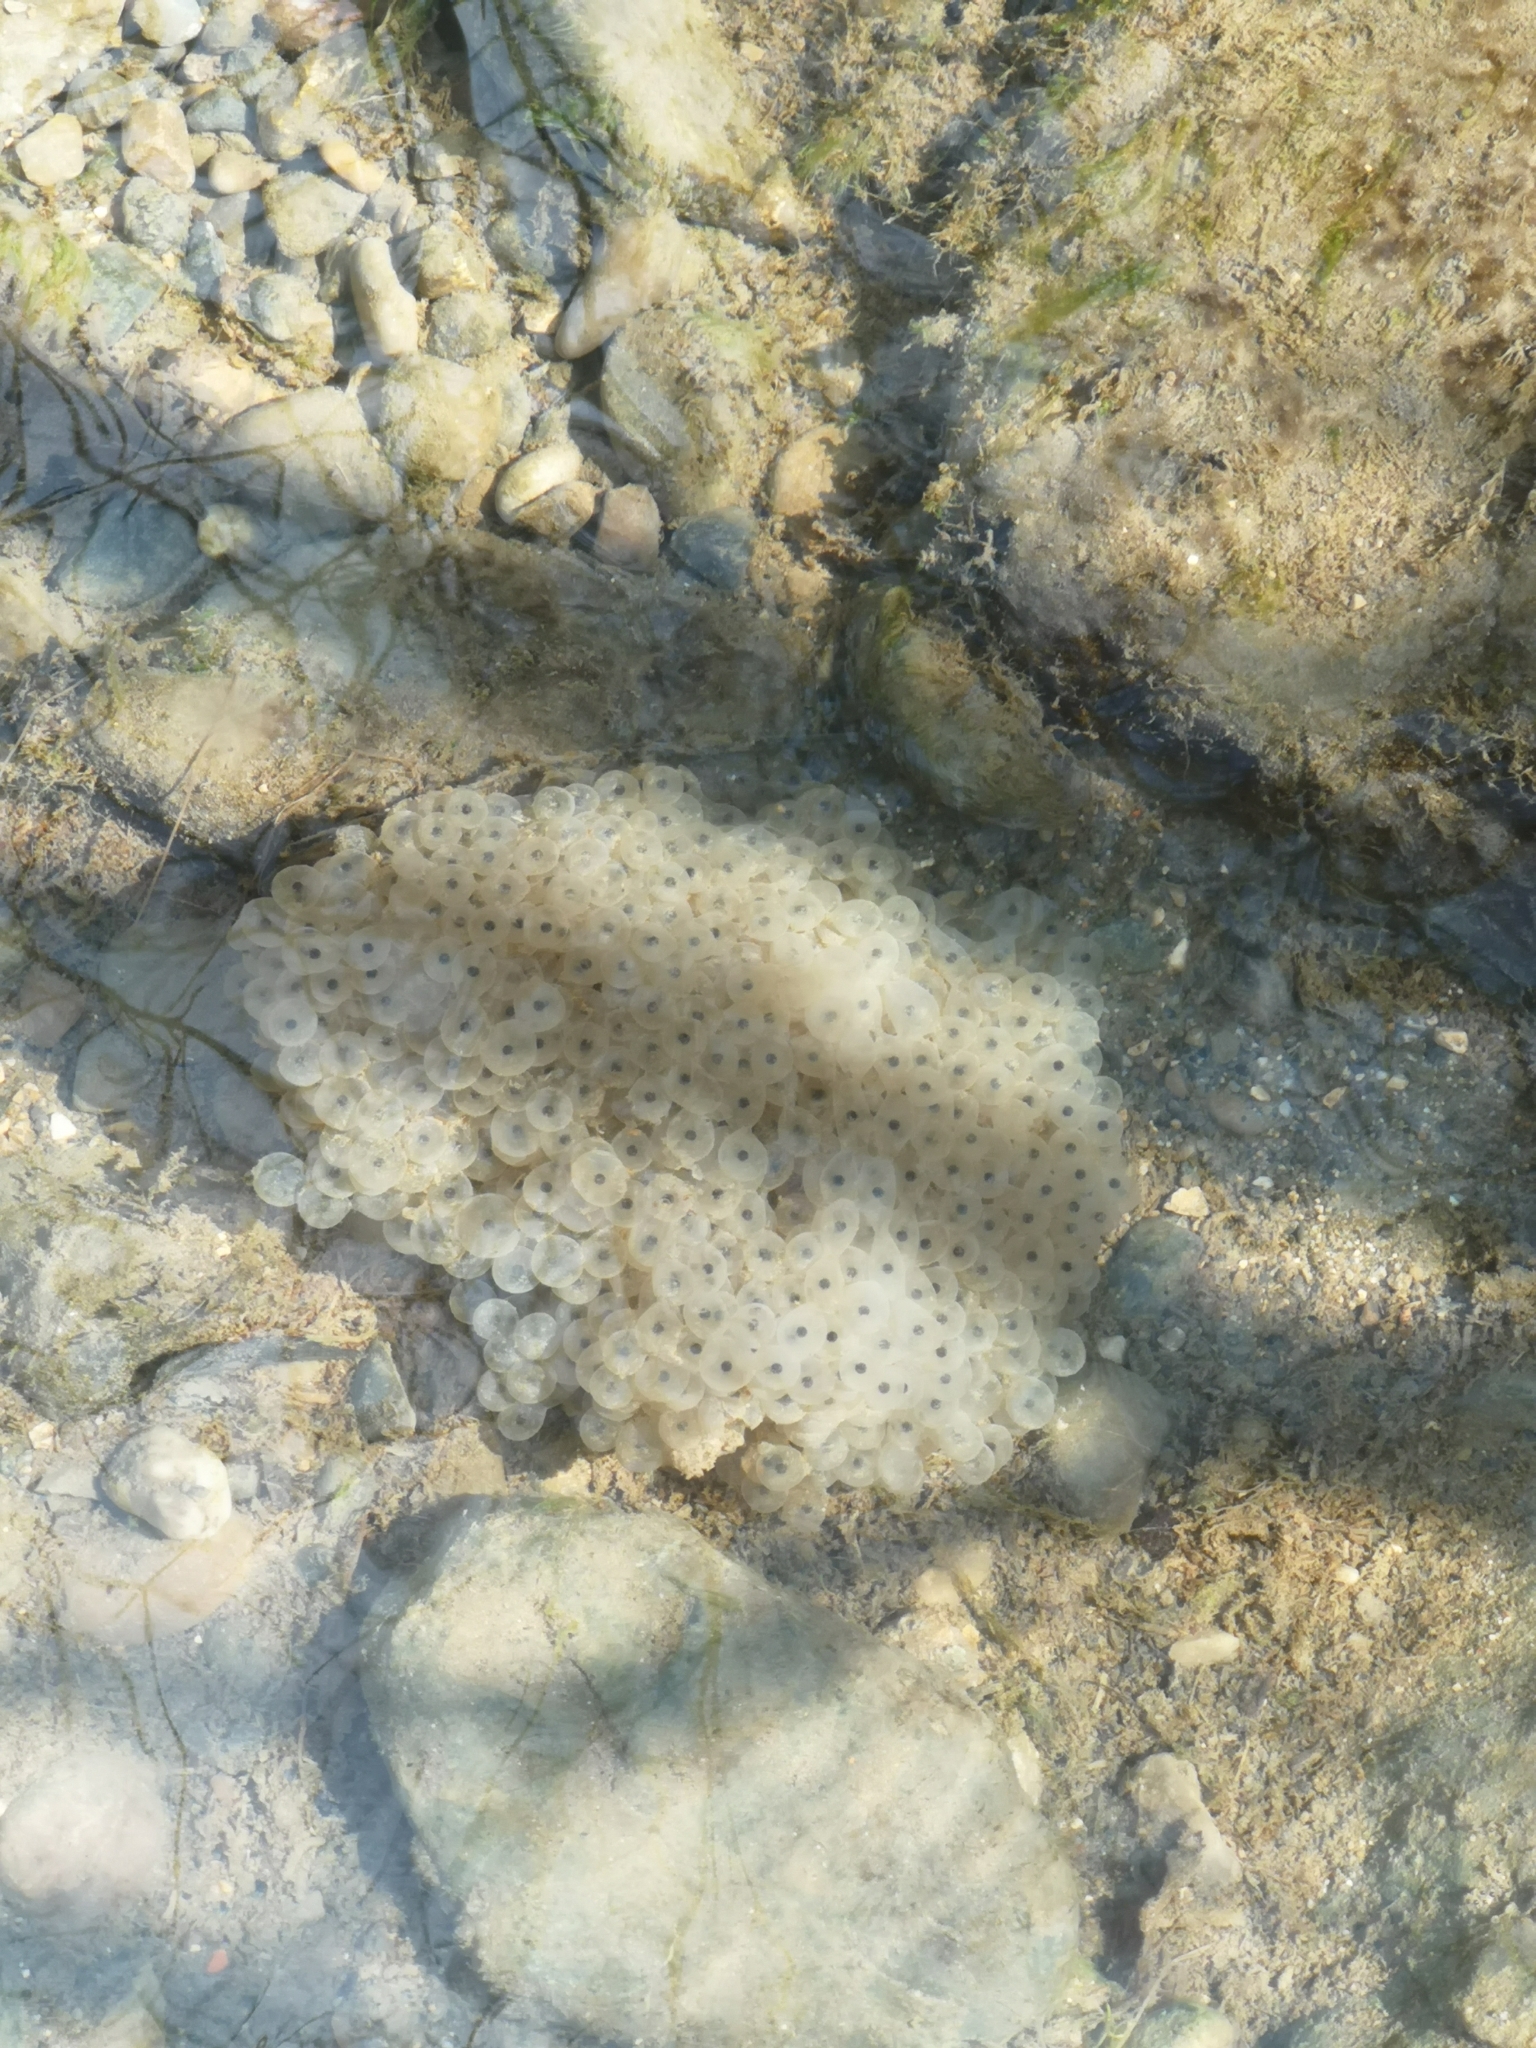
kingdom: Animalia
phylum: Chordata
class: Amphibia
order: Anura
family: Ranidae
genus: Rana
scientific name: Rana temporaria
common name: Common frog
